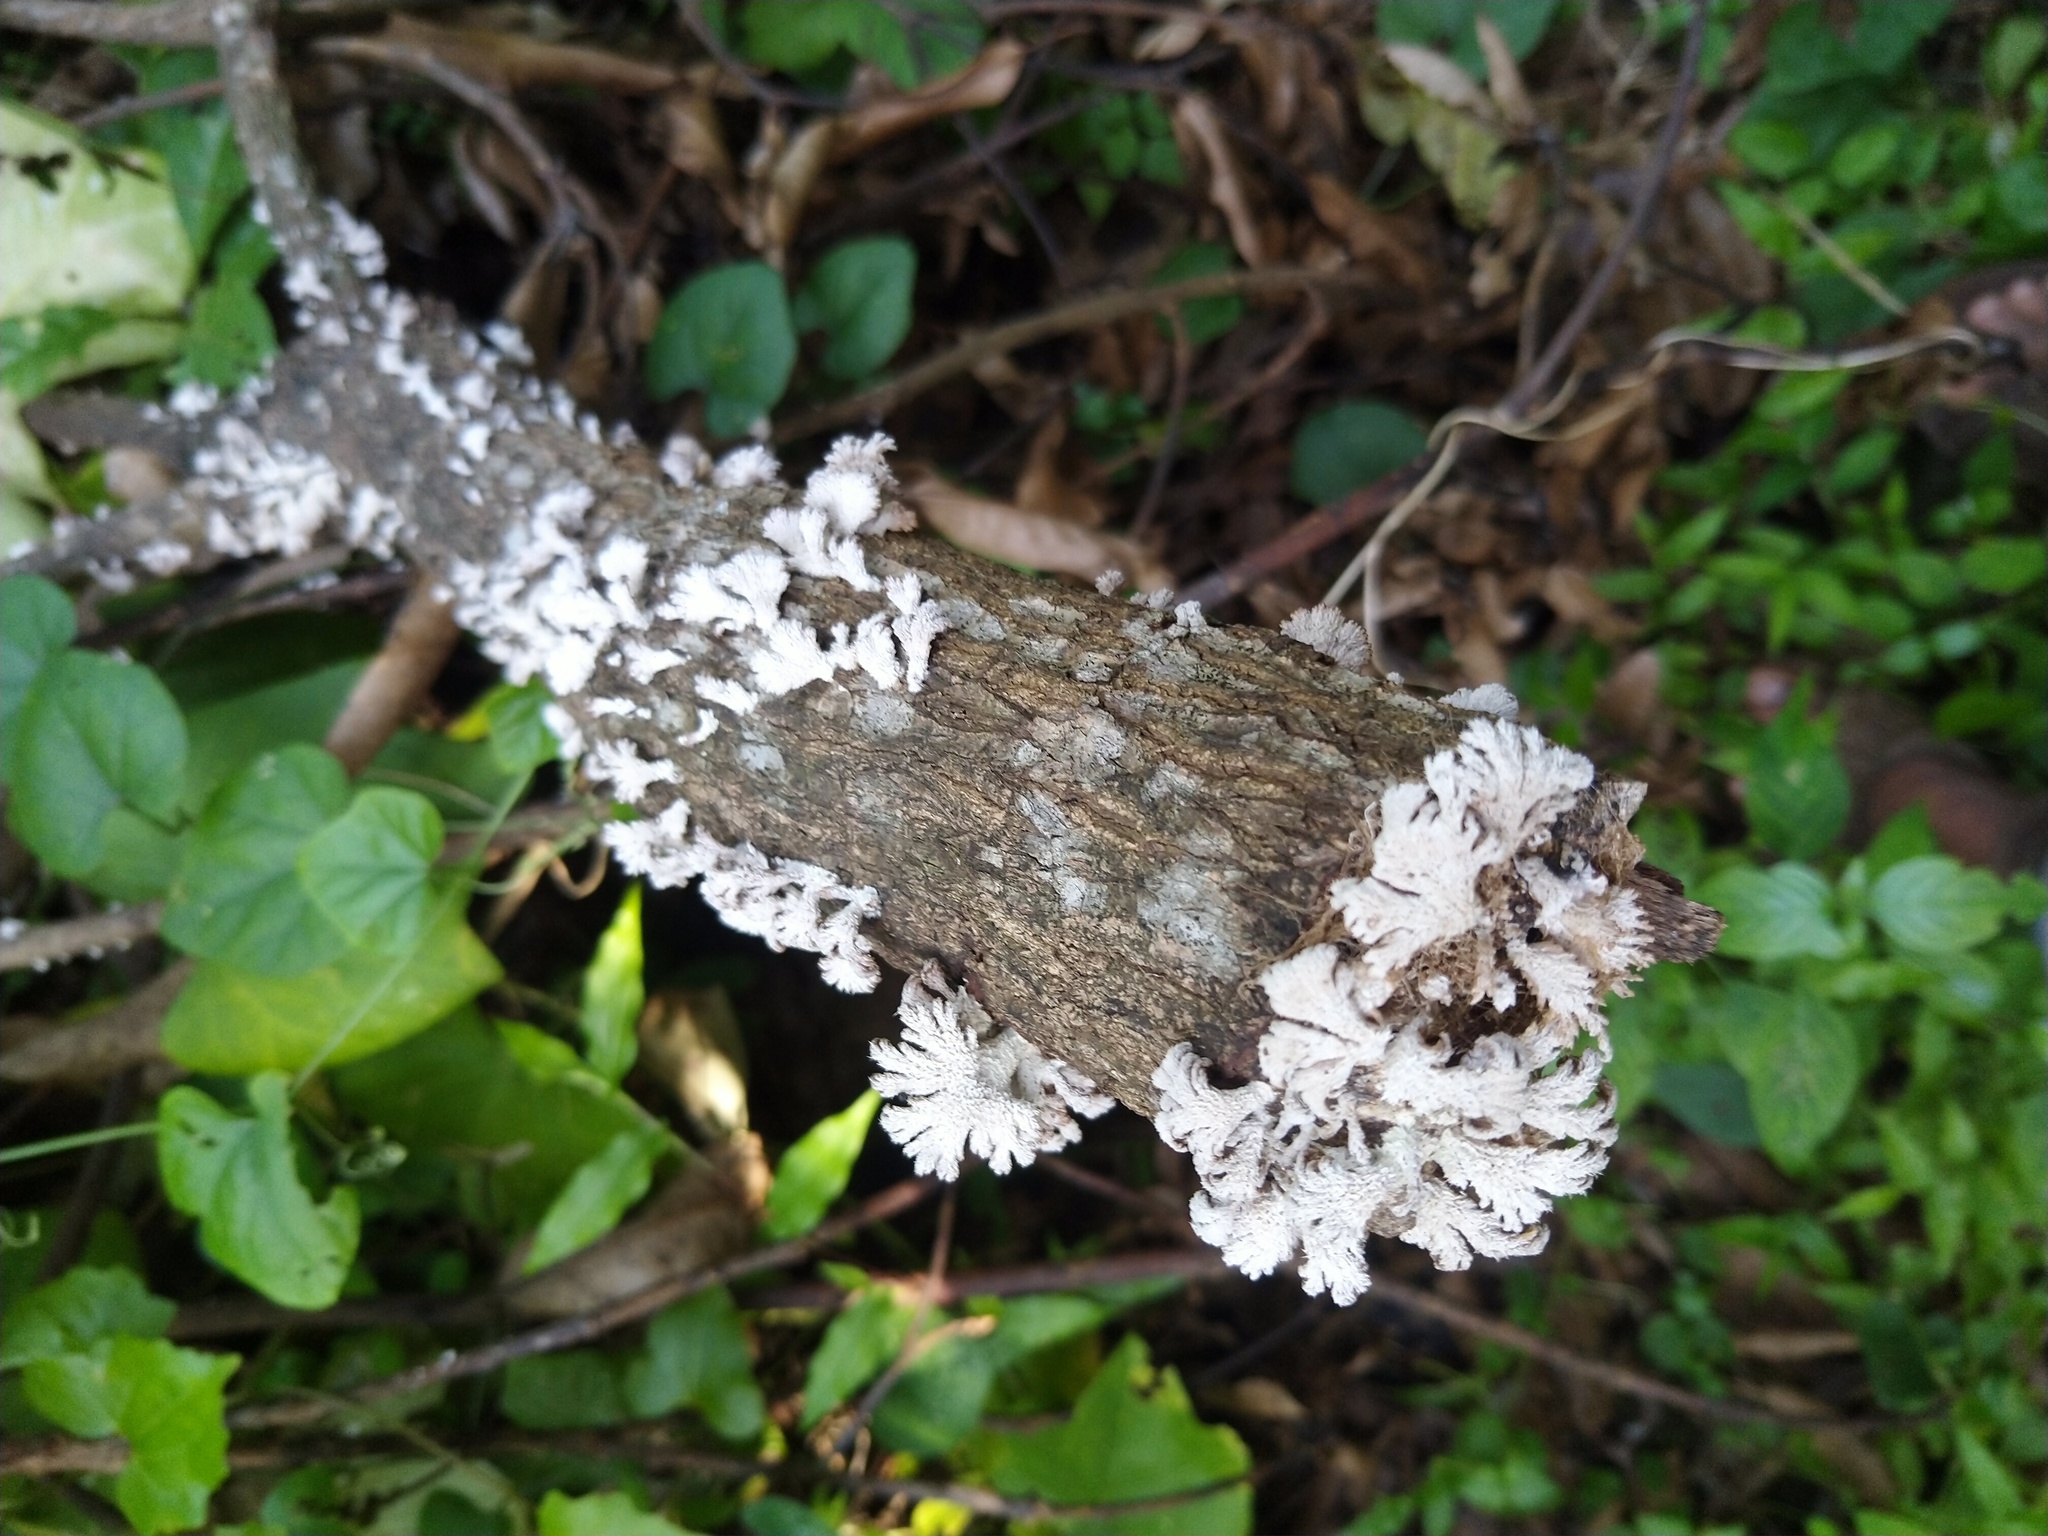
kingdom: Fungi
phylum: Basidiomycota
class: Agaricomycetes
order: Agaricales
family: Schizophyllaceae
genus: Schizophyllum
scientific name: Schizophyllum commune
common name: Common porecrust
